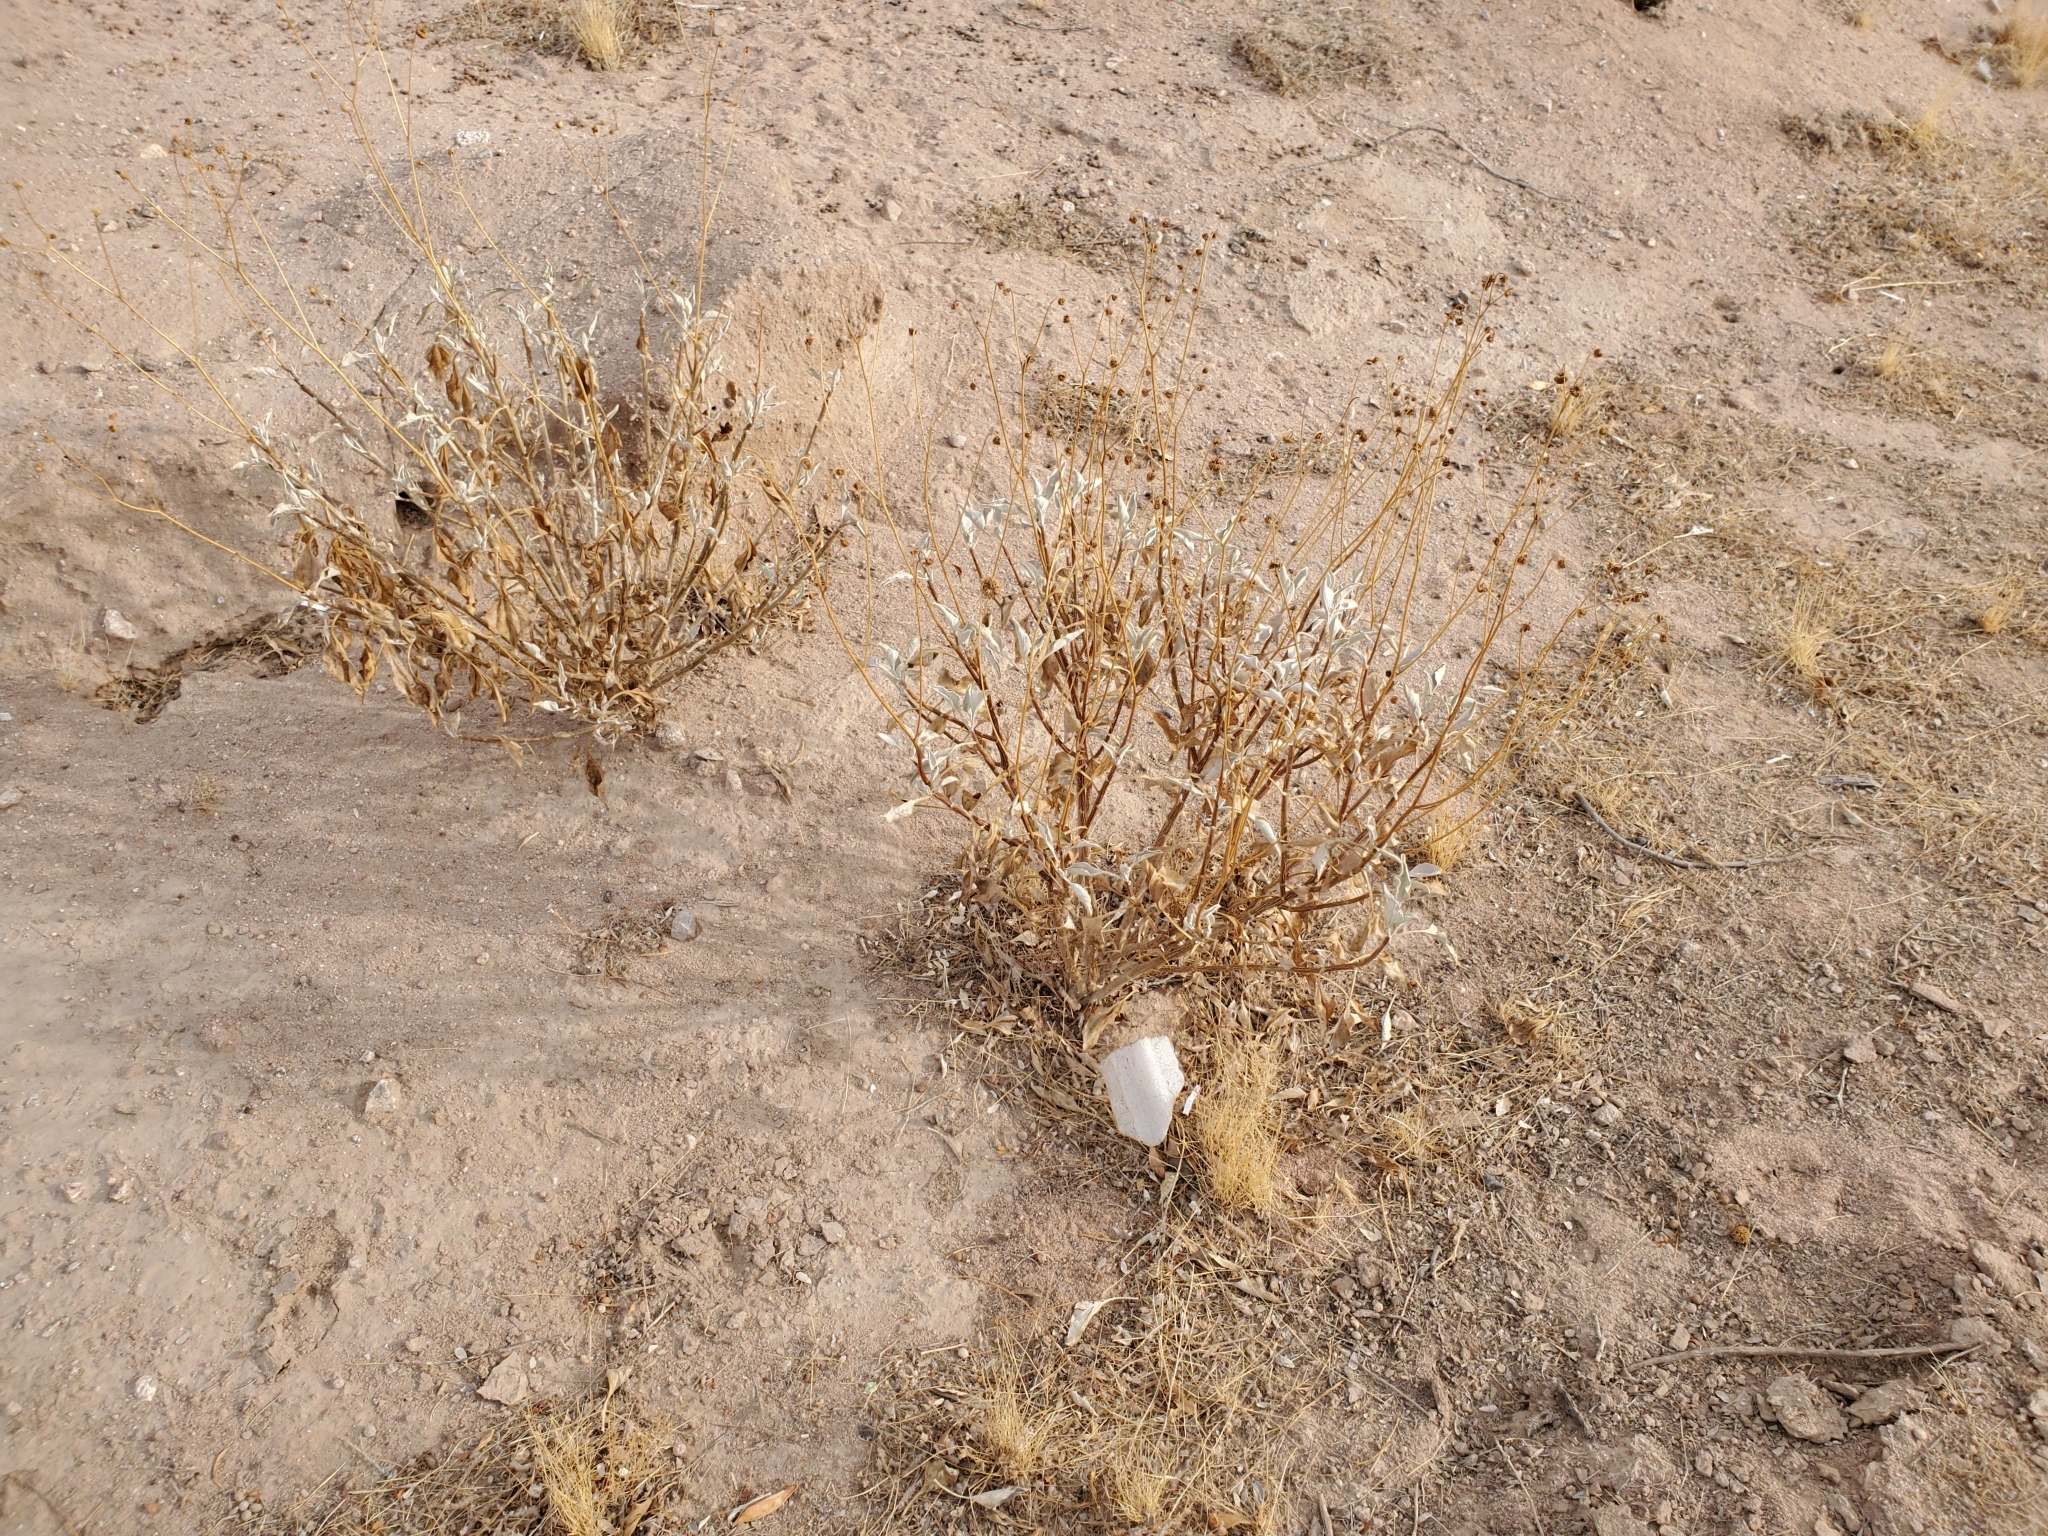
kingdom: Plantae
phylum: Tracheophyta
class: Magnoliopsida
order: Asterales
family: Asteraceae
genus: Encelia
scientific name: Encelia farinosa
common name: Brittlebush
